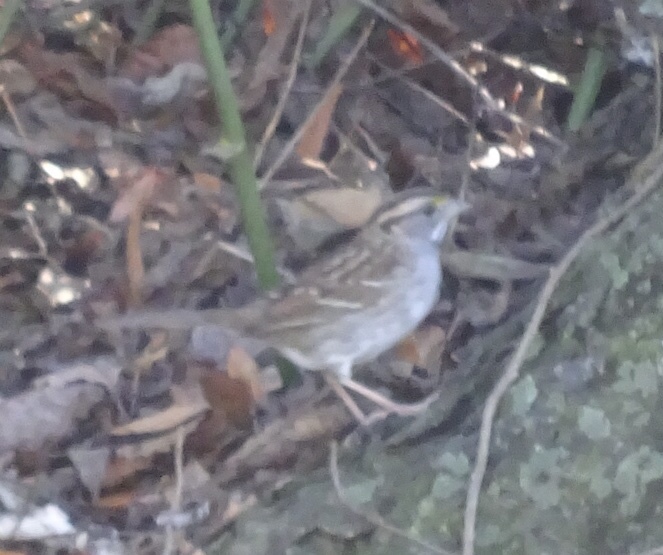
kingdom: Animalia
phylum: Chordata
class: Aves
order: Passeriformes
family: Passerellidae
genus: Zonotrichia
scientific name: Zonotrichia albicollis
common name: White-throated sparrow
